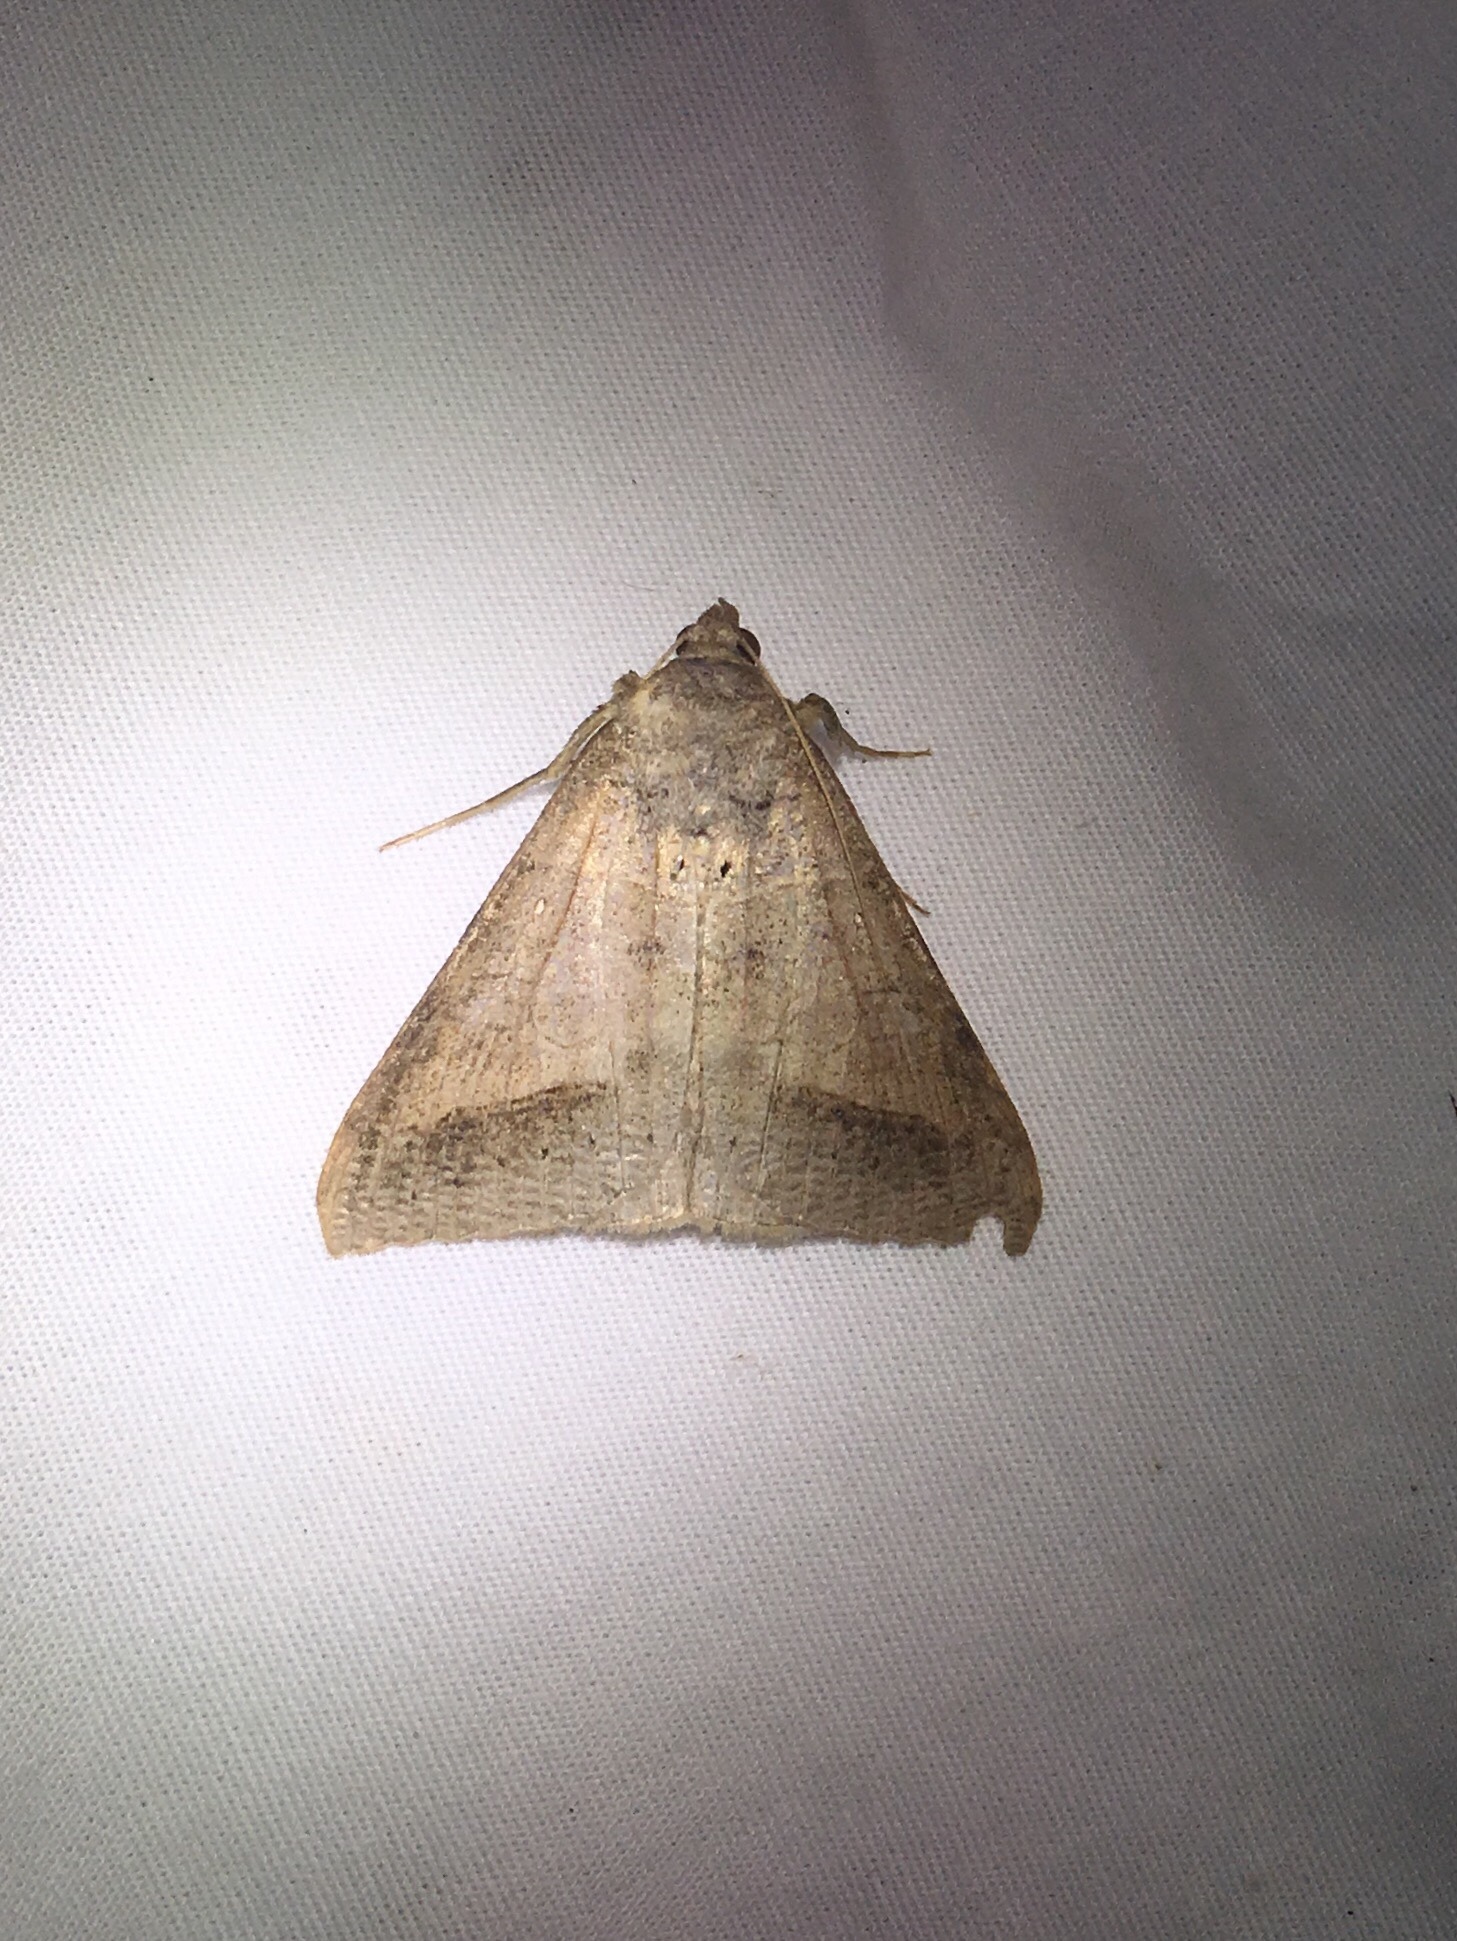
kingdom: Animalia
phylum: Arthropoda
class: Insecta
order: Lepidoptera
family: Erebidae
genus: Mocis
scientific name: Mocis marcida
